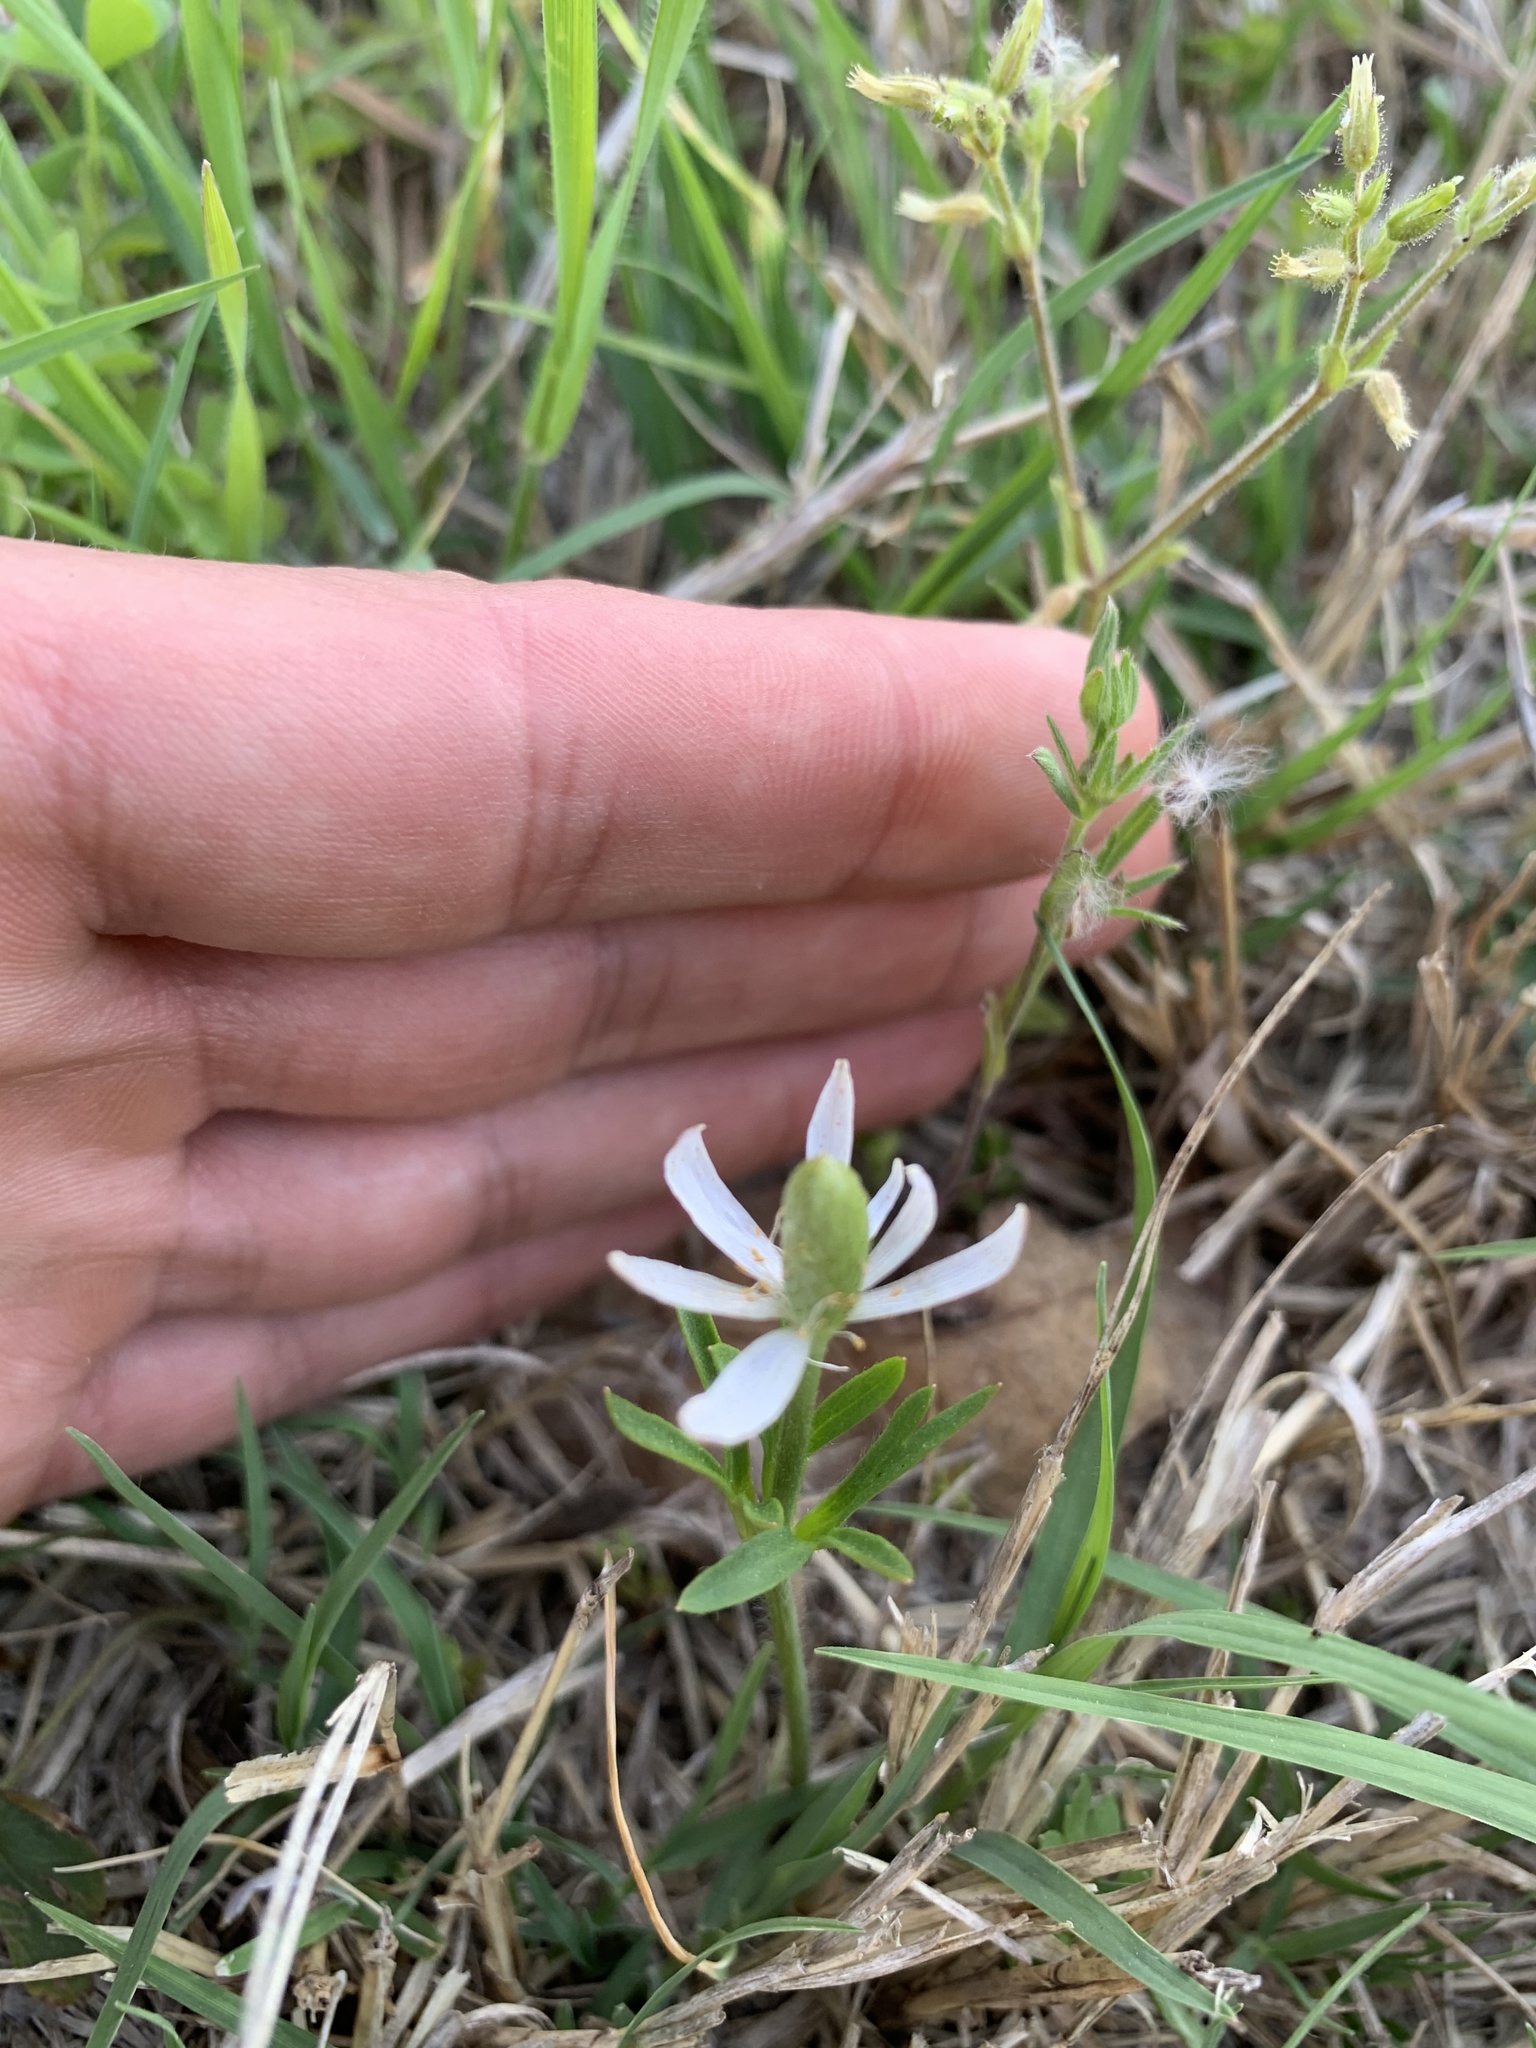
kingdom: Plantae
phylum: Tracheophyta
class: Magnoliopsida
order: Ranunculales
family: Ranunculaceae
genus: Anemone
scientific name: Anemone berlandieri
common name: Ten-petal anemone
